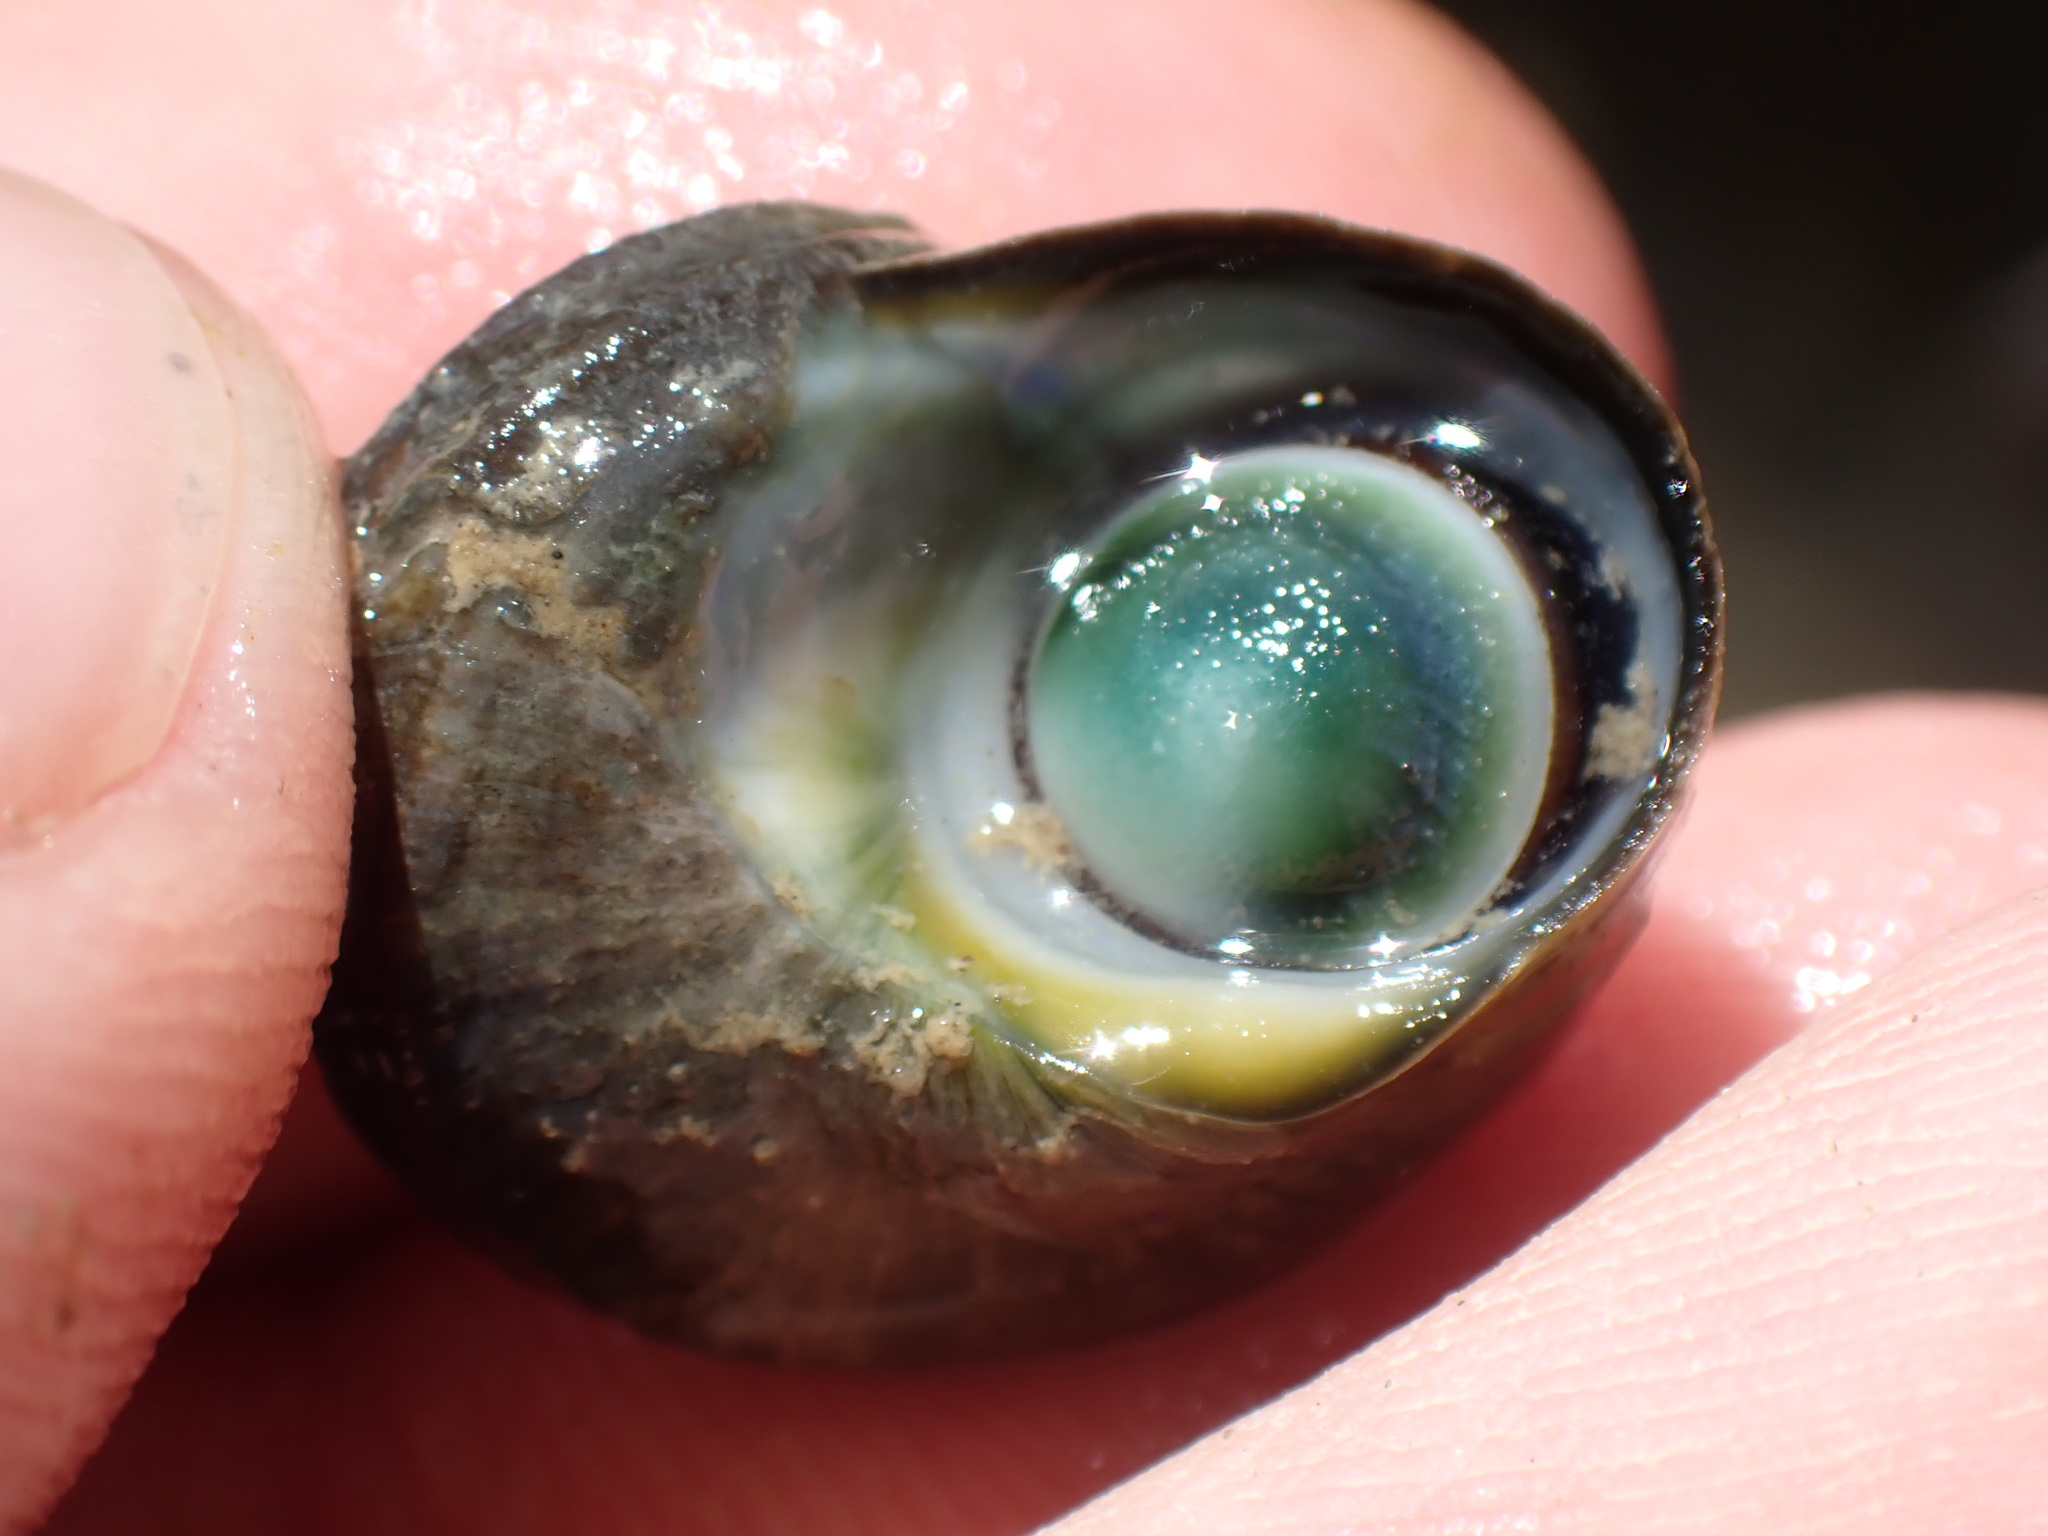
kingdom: Animalia
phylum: Mollusca
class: Gastropoda
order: Trochida
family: Turbinidae
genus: Lunella
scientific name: Lunella smaragda
